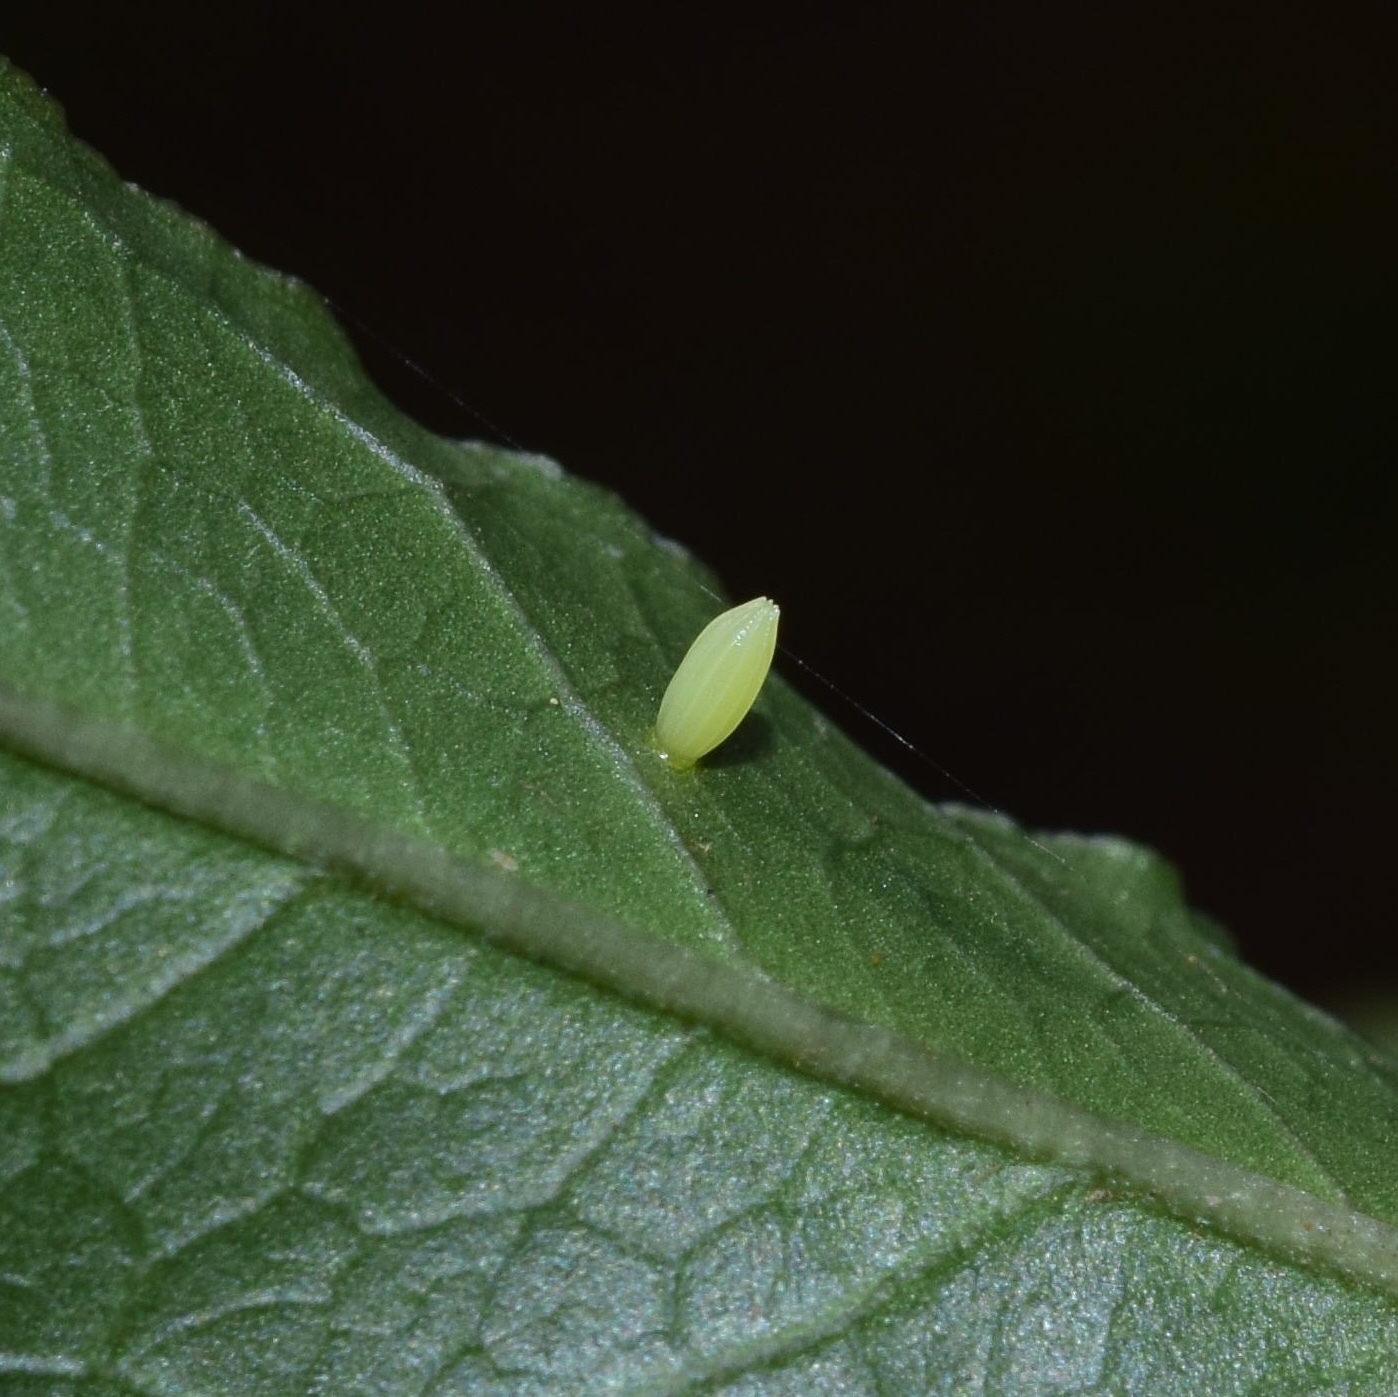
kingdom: Animalia
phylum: Arthropoda
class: Insecta
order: Lepidoptera
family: Pieridae
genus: Belenois
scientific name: Belenois thysa
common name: False dotted border
